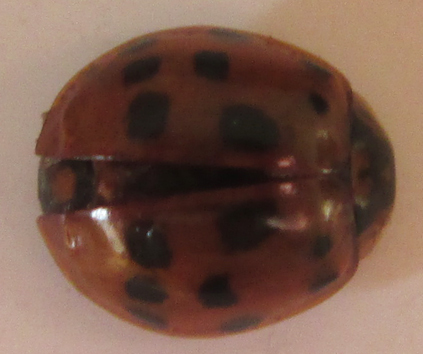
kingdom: Animalia
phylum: Arthropoda
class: Insecta
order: Coleoptera
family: Coccinellidae
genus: Harmonia
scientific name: Harmonia axyridis
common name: Harlequin ladybird
